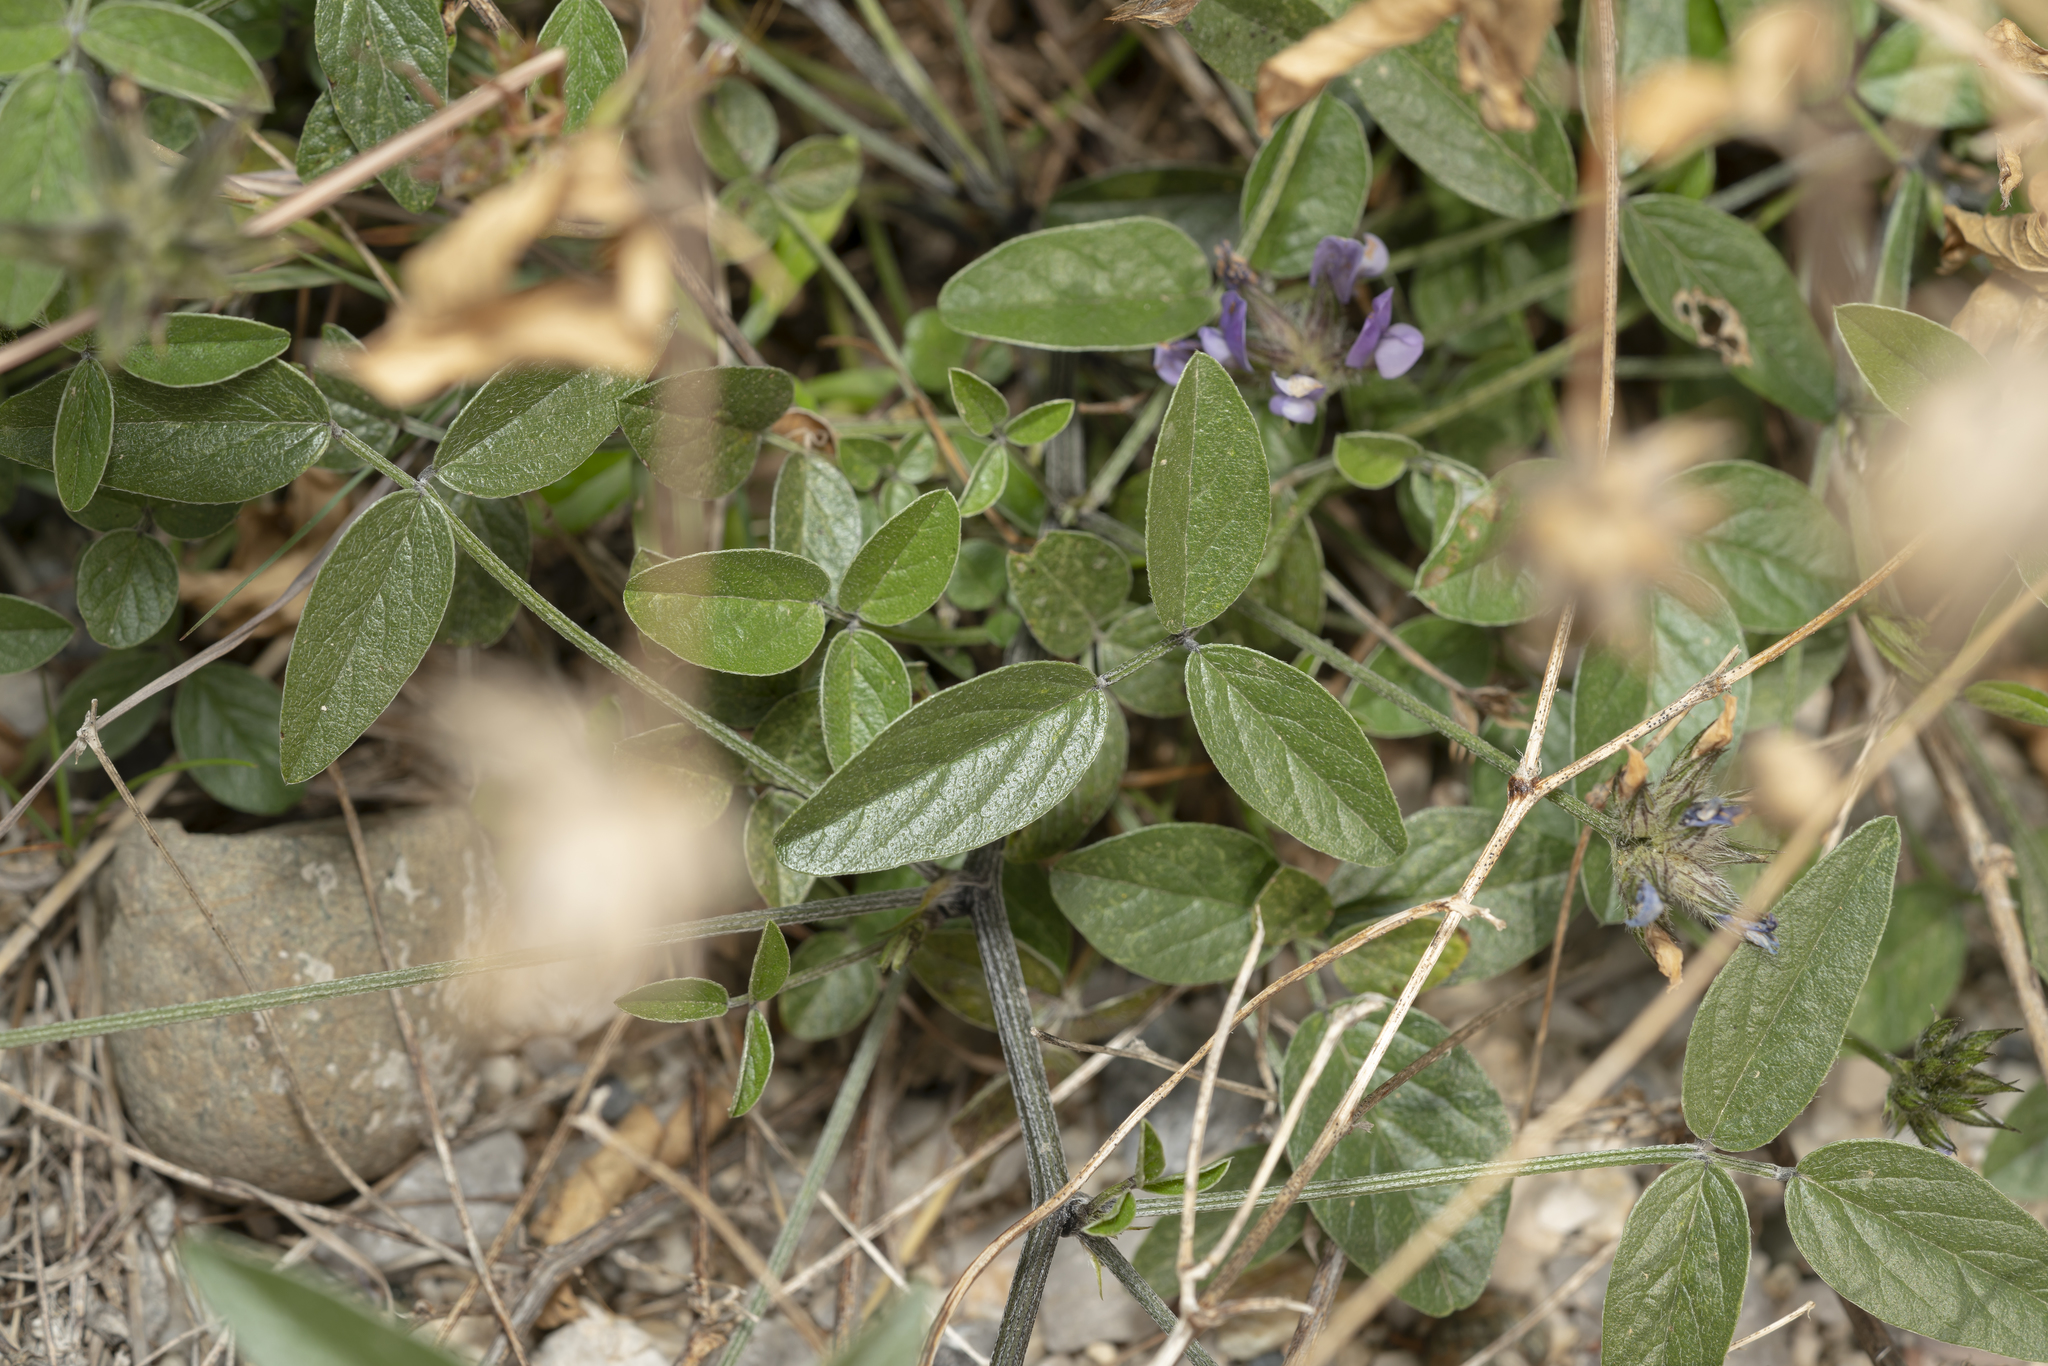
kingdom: Plantae
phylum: Tracheophyta
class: Magnoliopsida
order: Fabales
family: Fabaceae
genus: Bituminaria
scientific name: Bituminaria bituminosa
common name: Arabian pea
